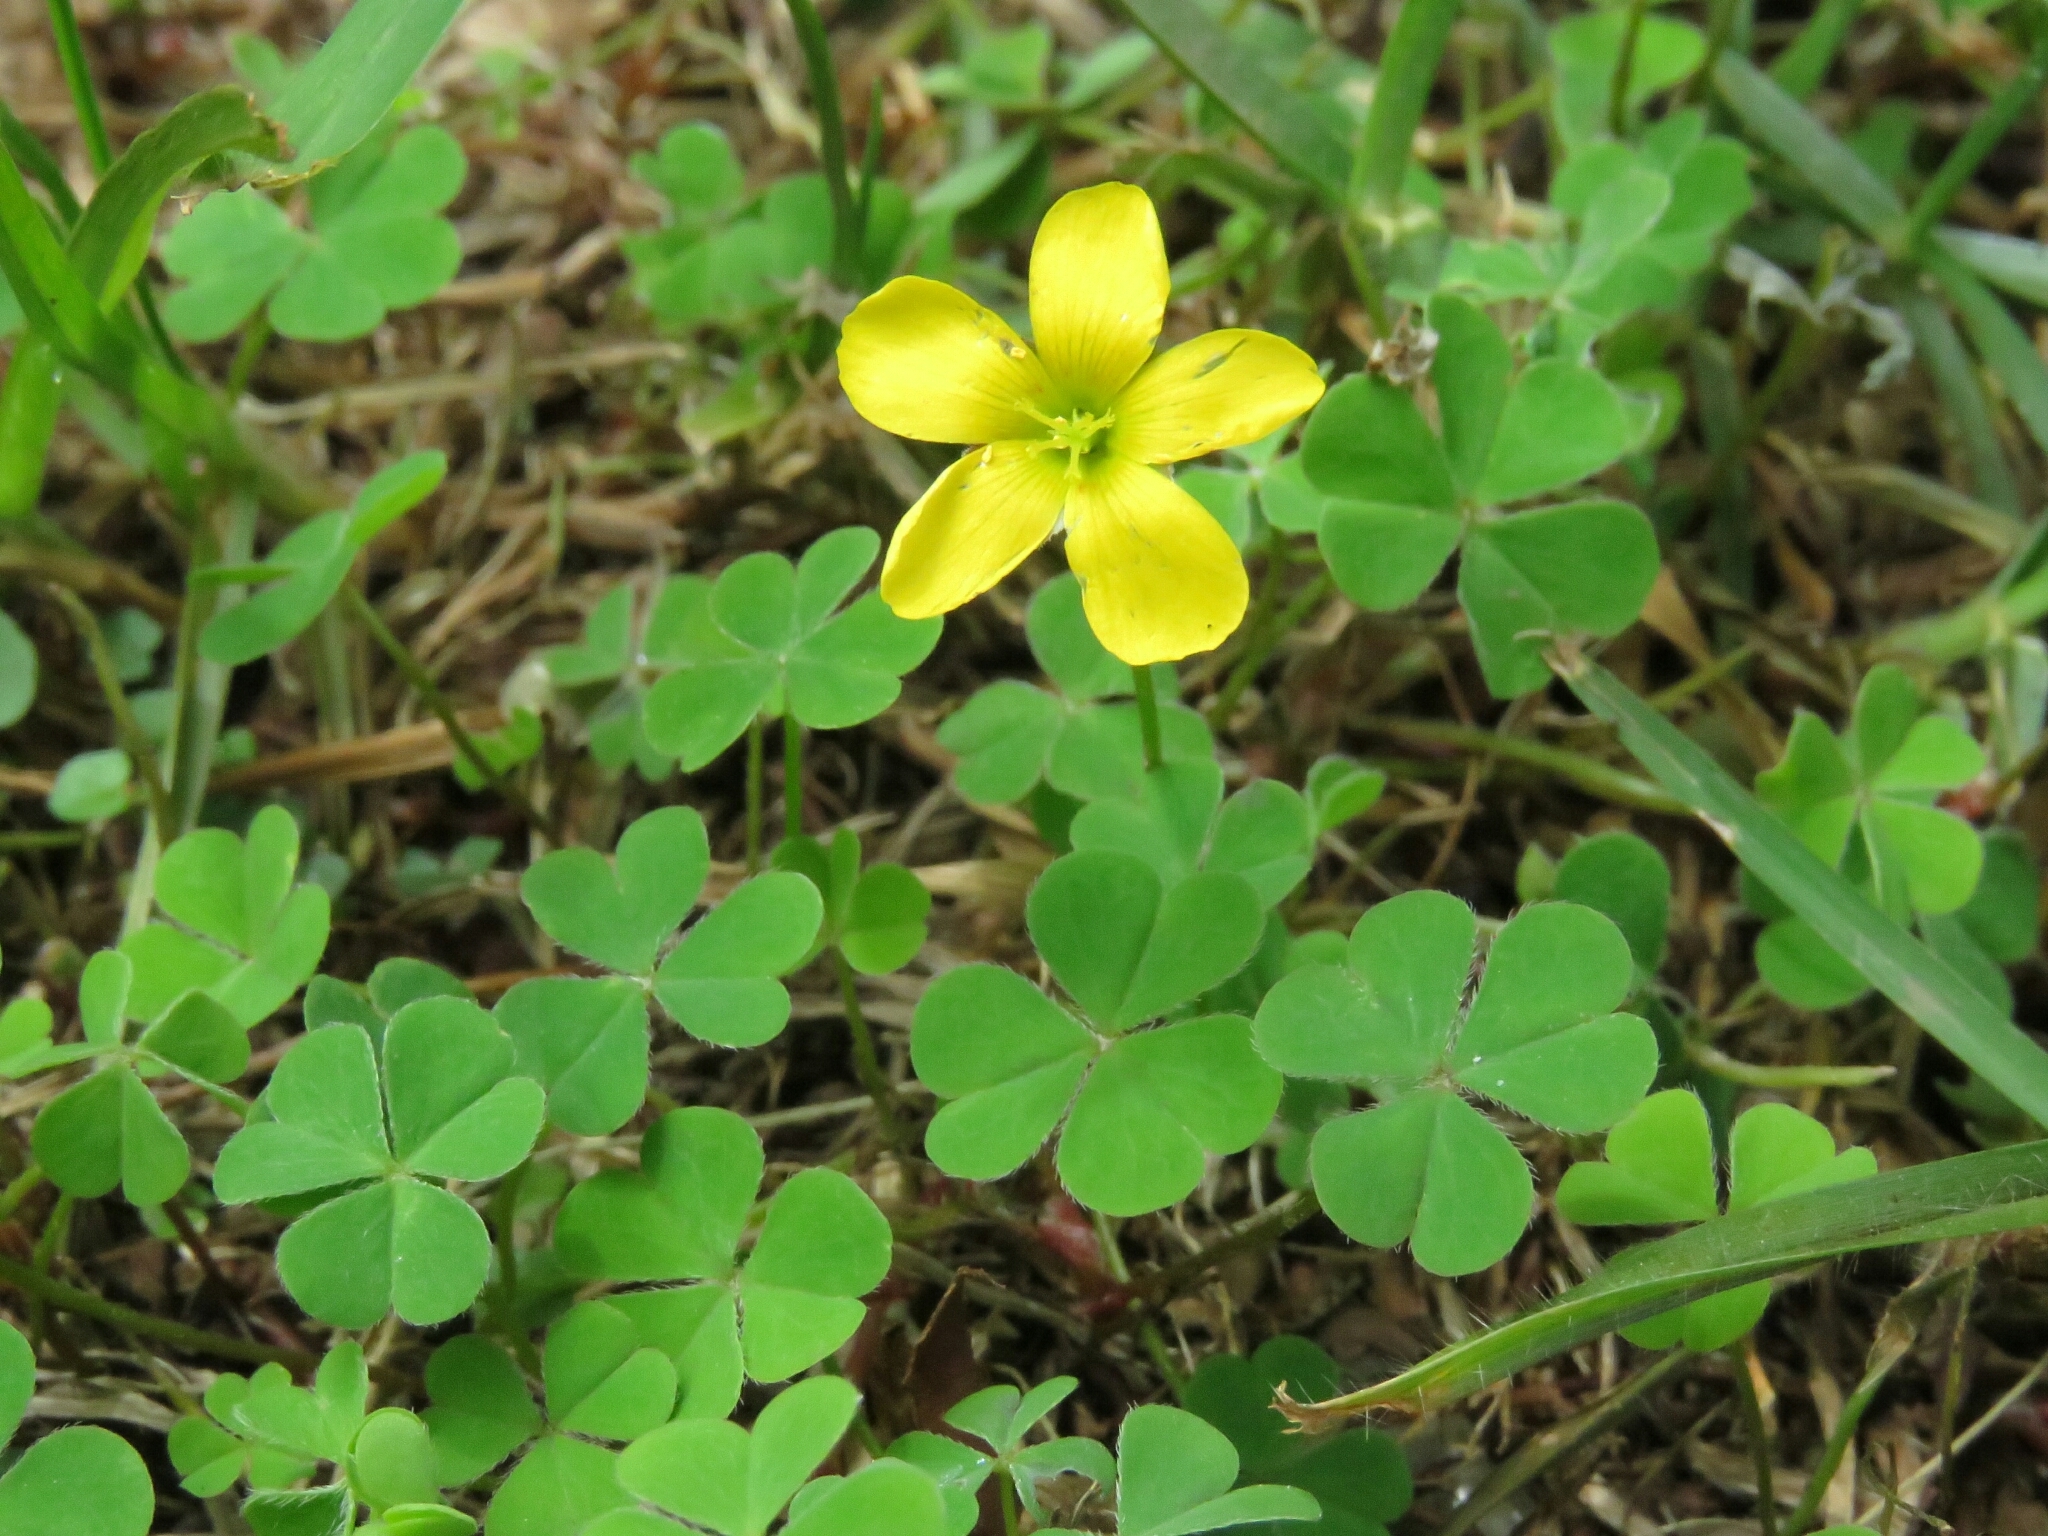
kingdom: Plantae
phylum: Tracheophyta
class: Magnoliopsida
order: Oxalidales
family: Oxalidaceae
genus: Oxalis
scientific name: Oxalis corniculata
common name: Procumbent yellow-sorrel
